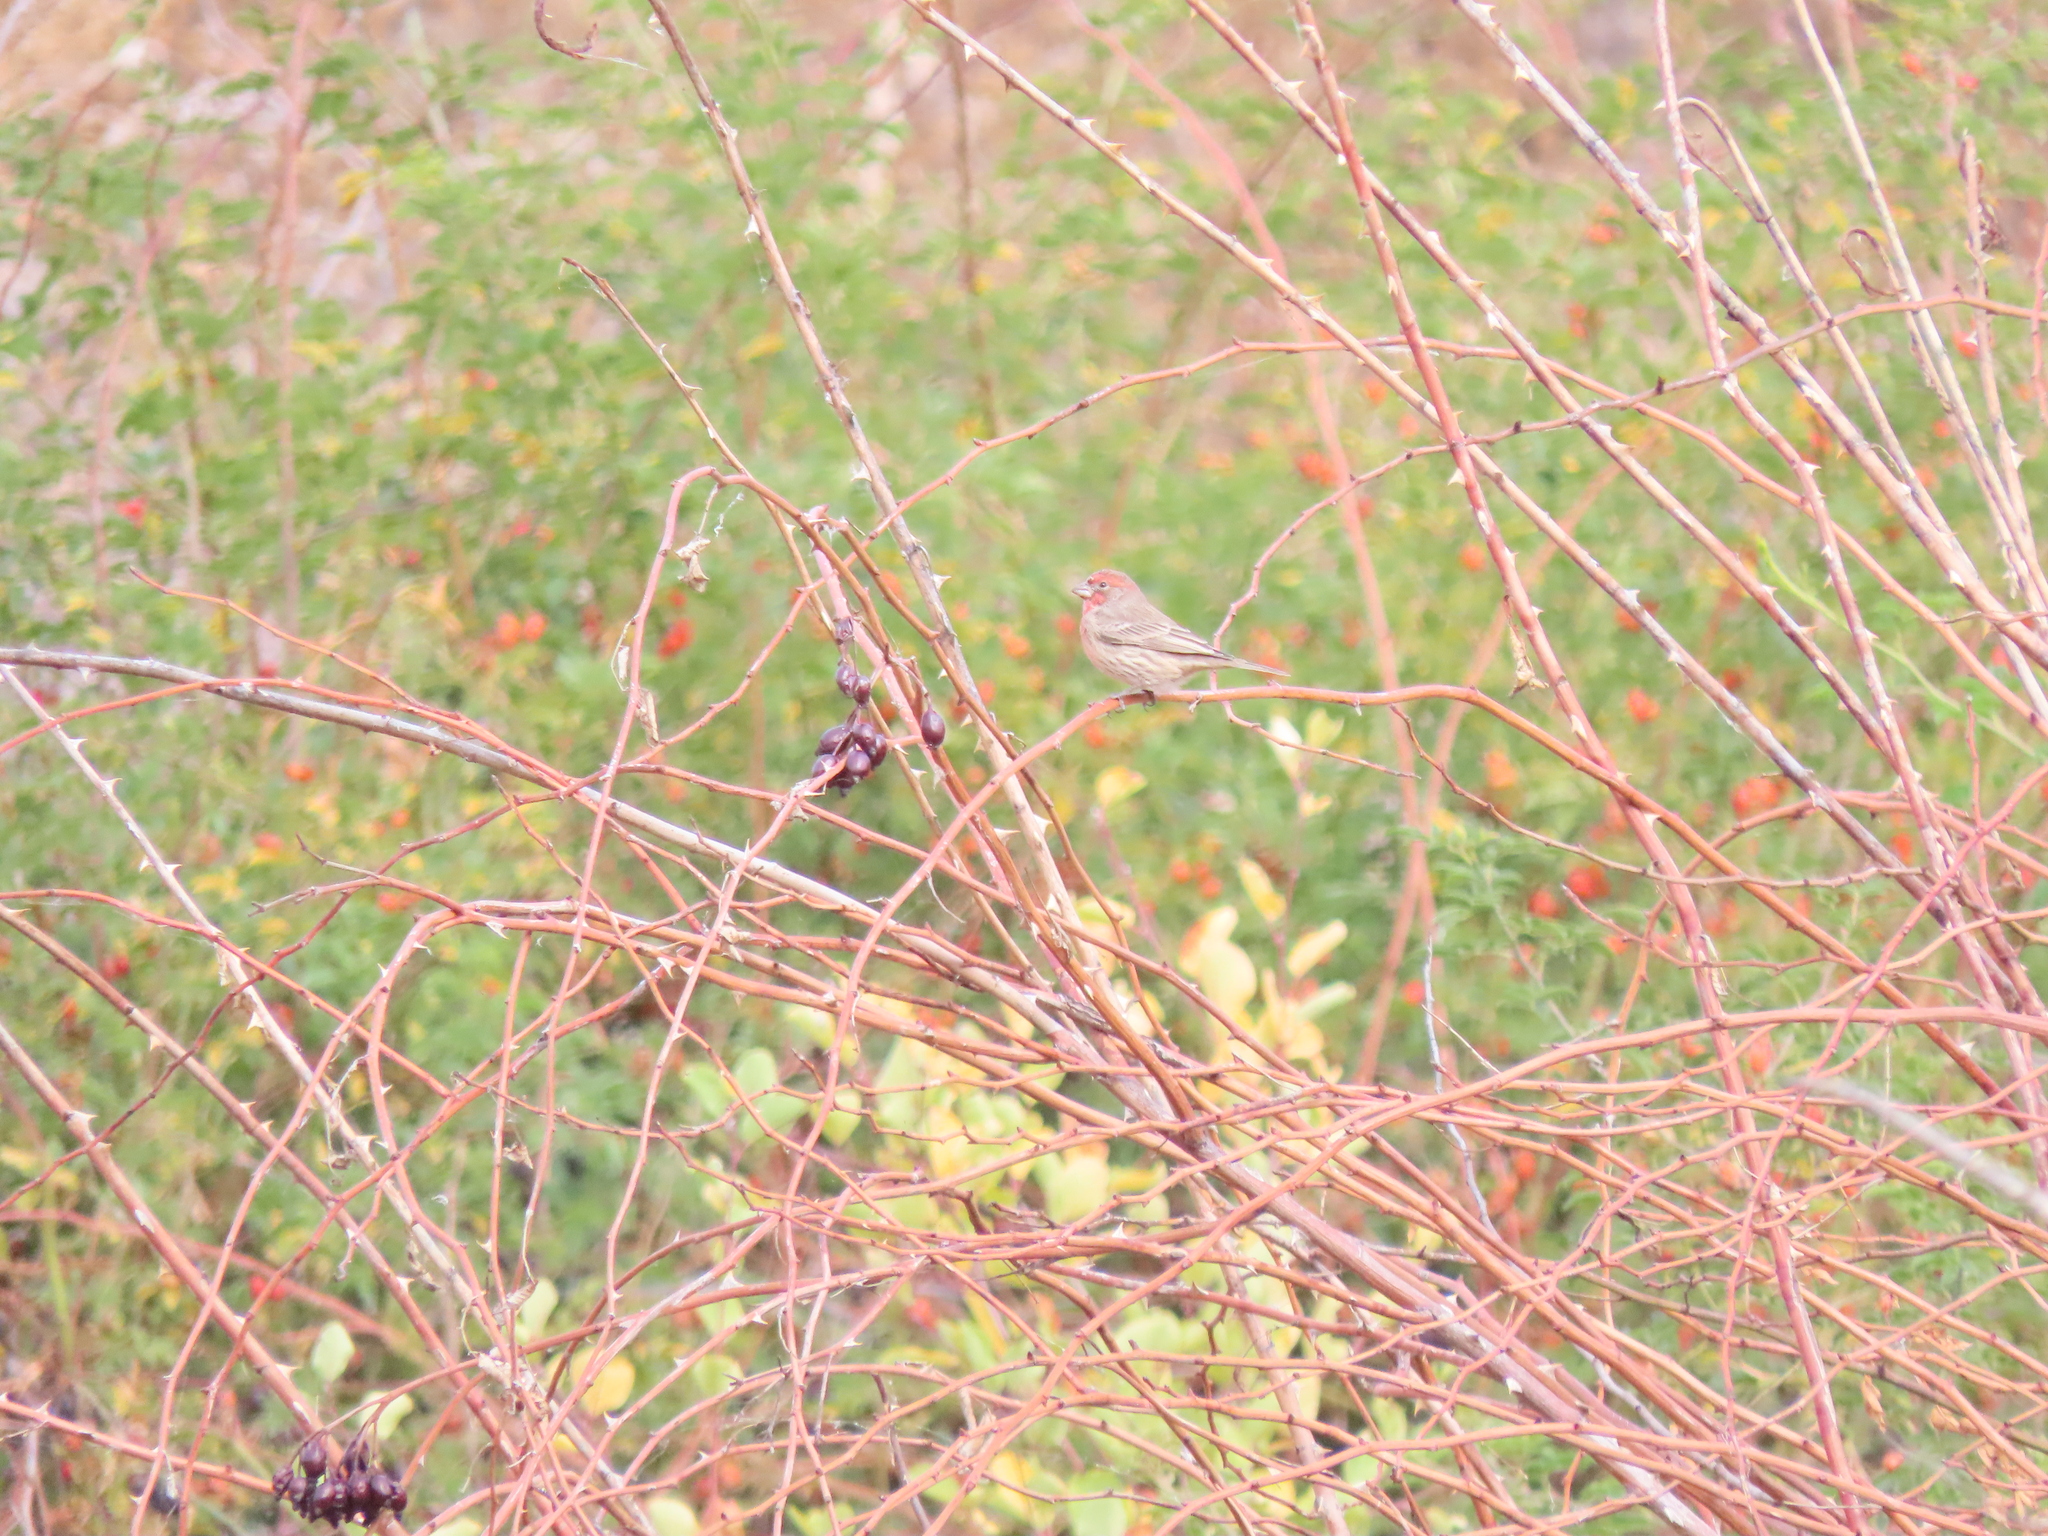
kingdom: Animalia
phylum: Chordata
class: Aves
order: Passeriformes
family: Fringillidae
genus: Haemorhous
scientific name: Haemorhous mexicanus
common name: House finch
